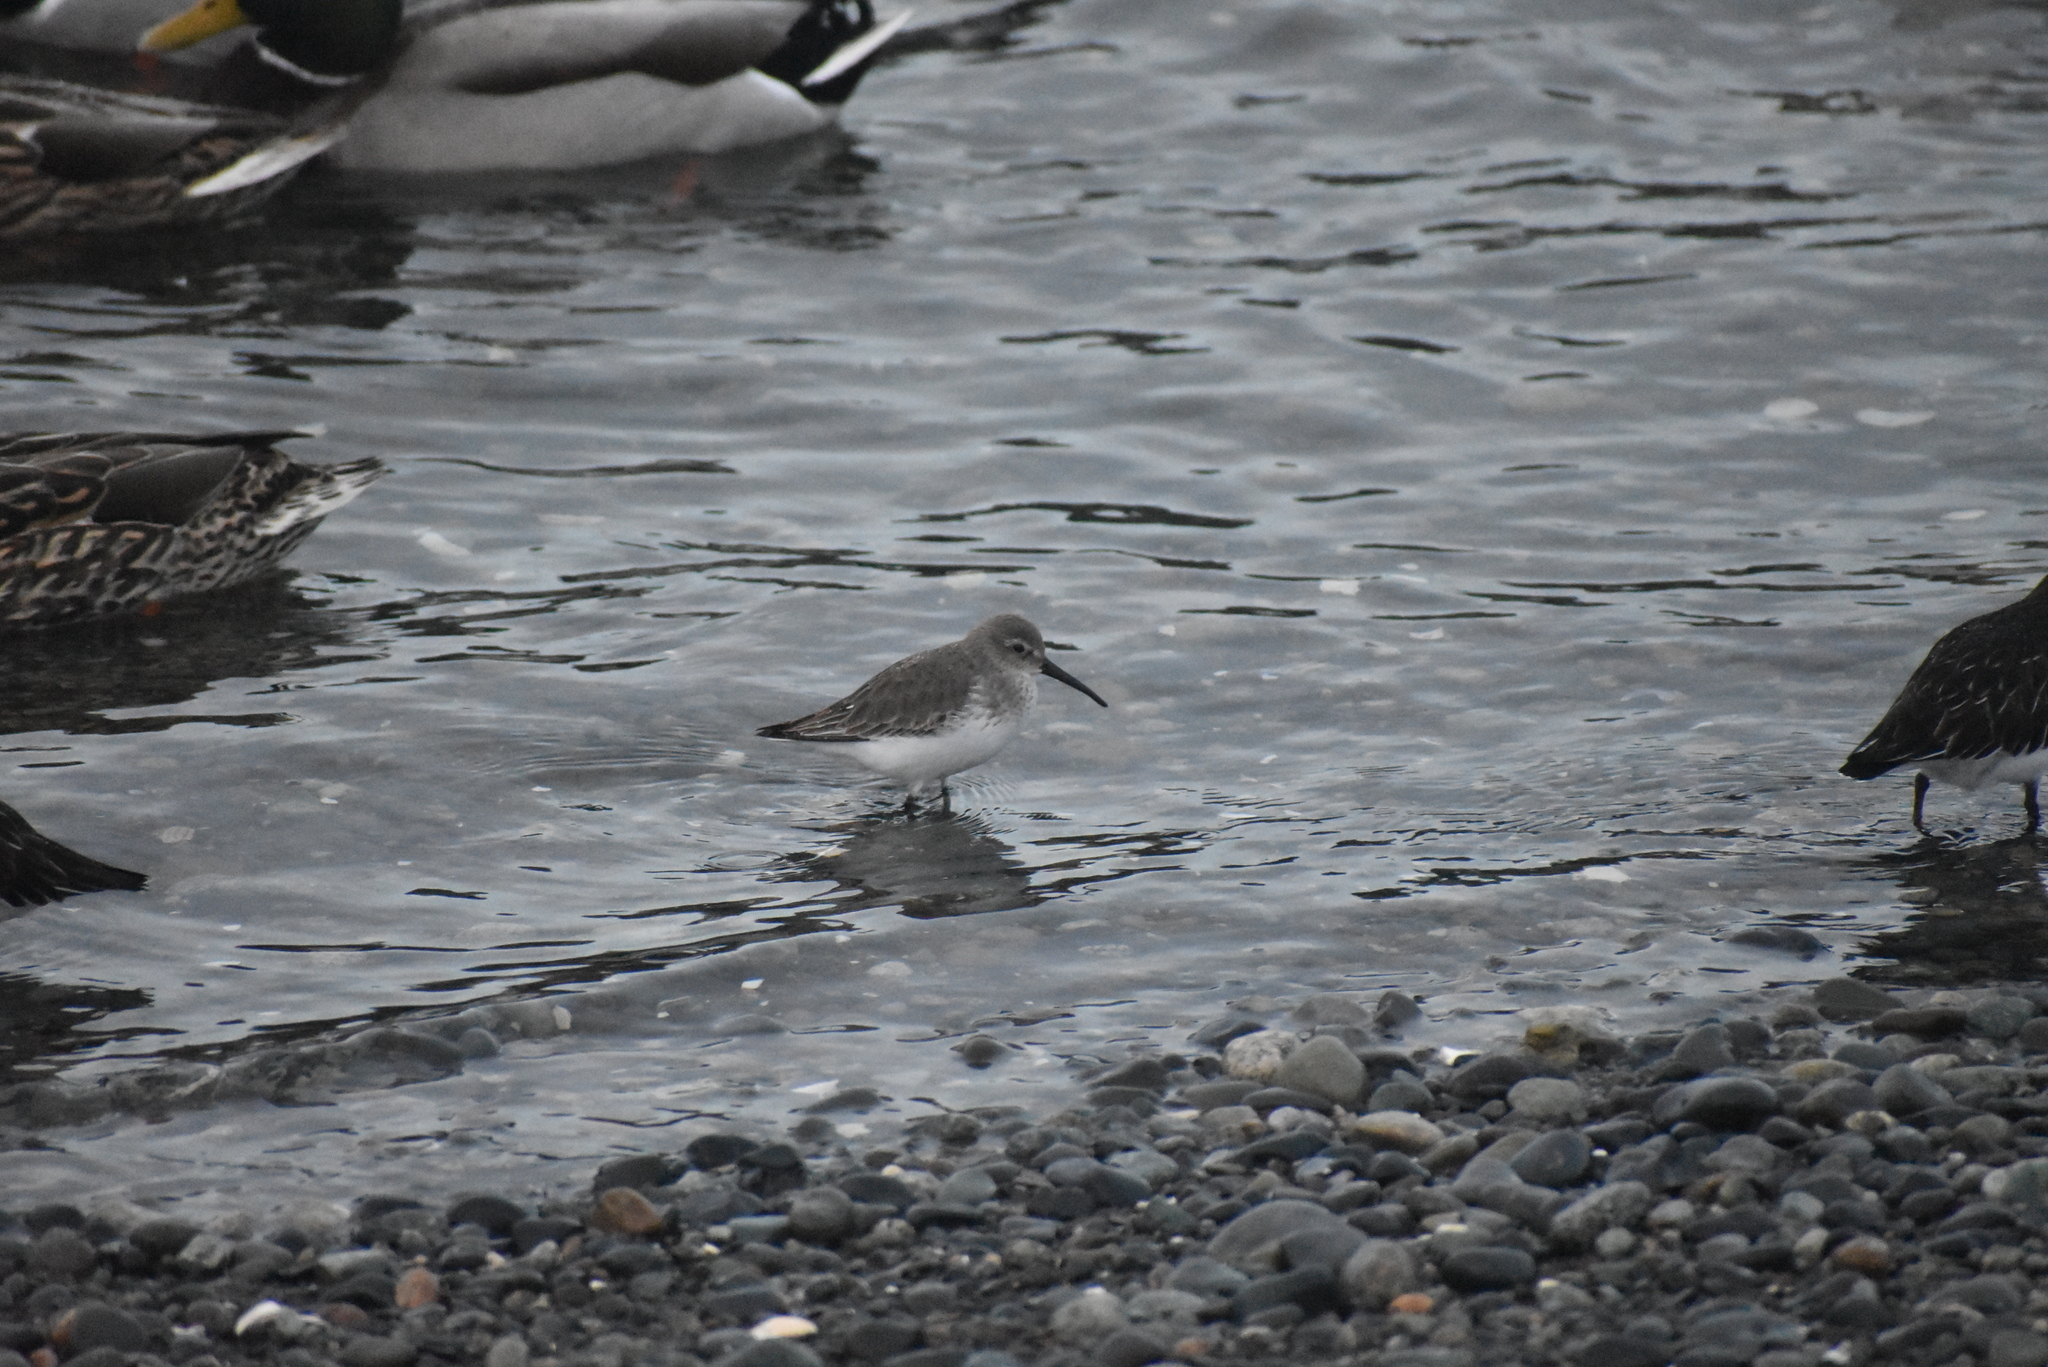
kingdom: Animalia
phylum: Chordata
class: Aves
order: Charadriiformes
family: Scolopacidae
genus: Calidris
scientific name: Calidris alpina
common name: Dunlin
